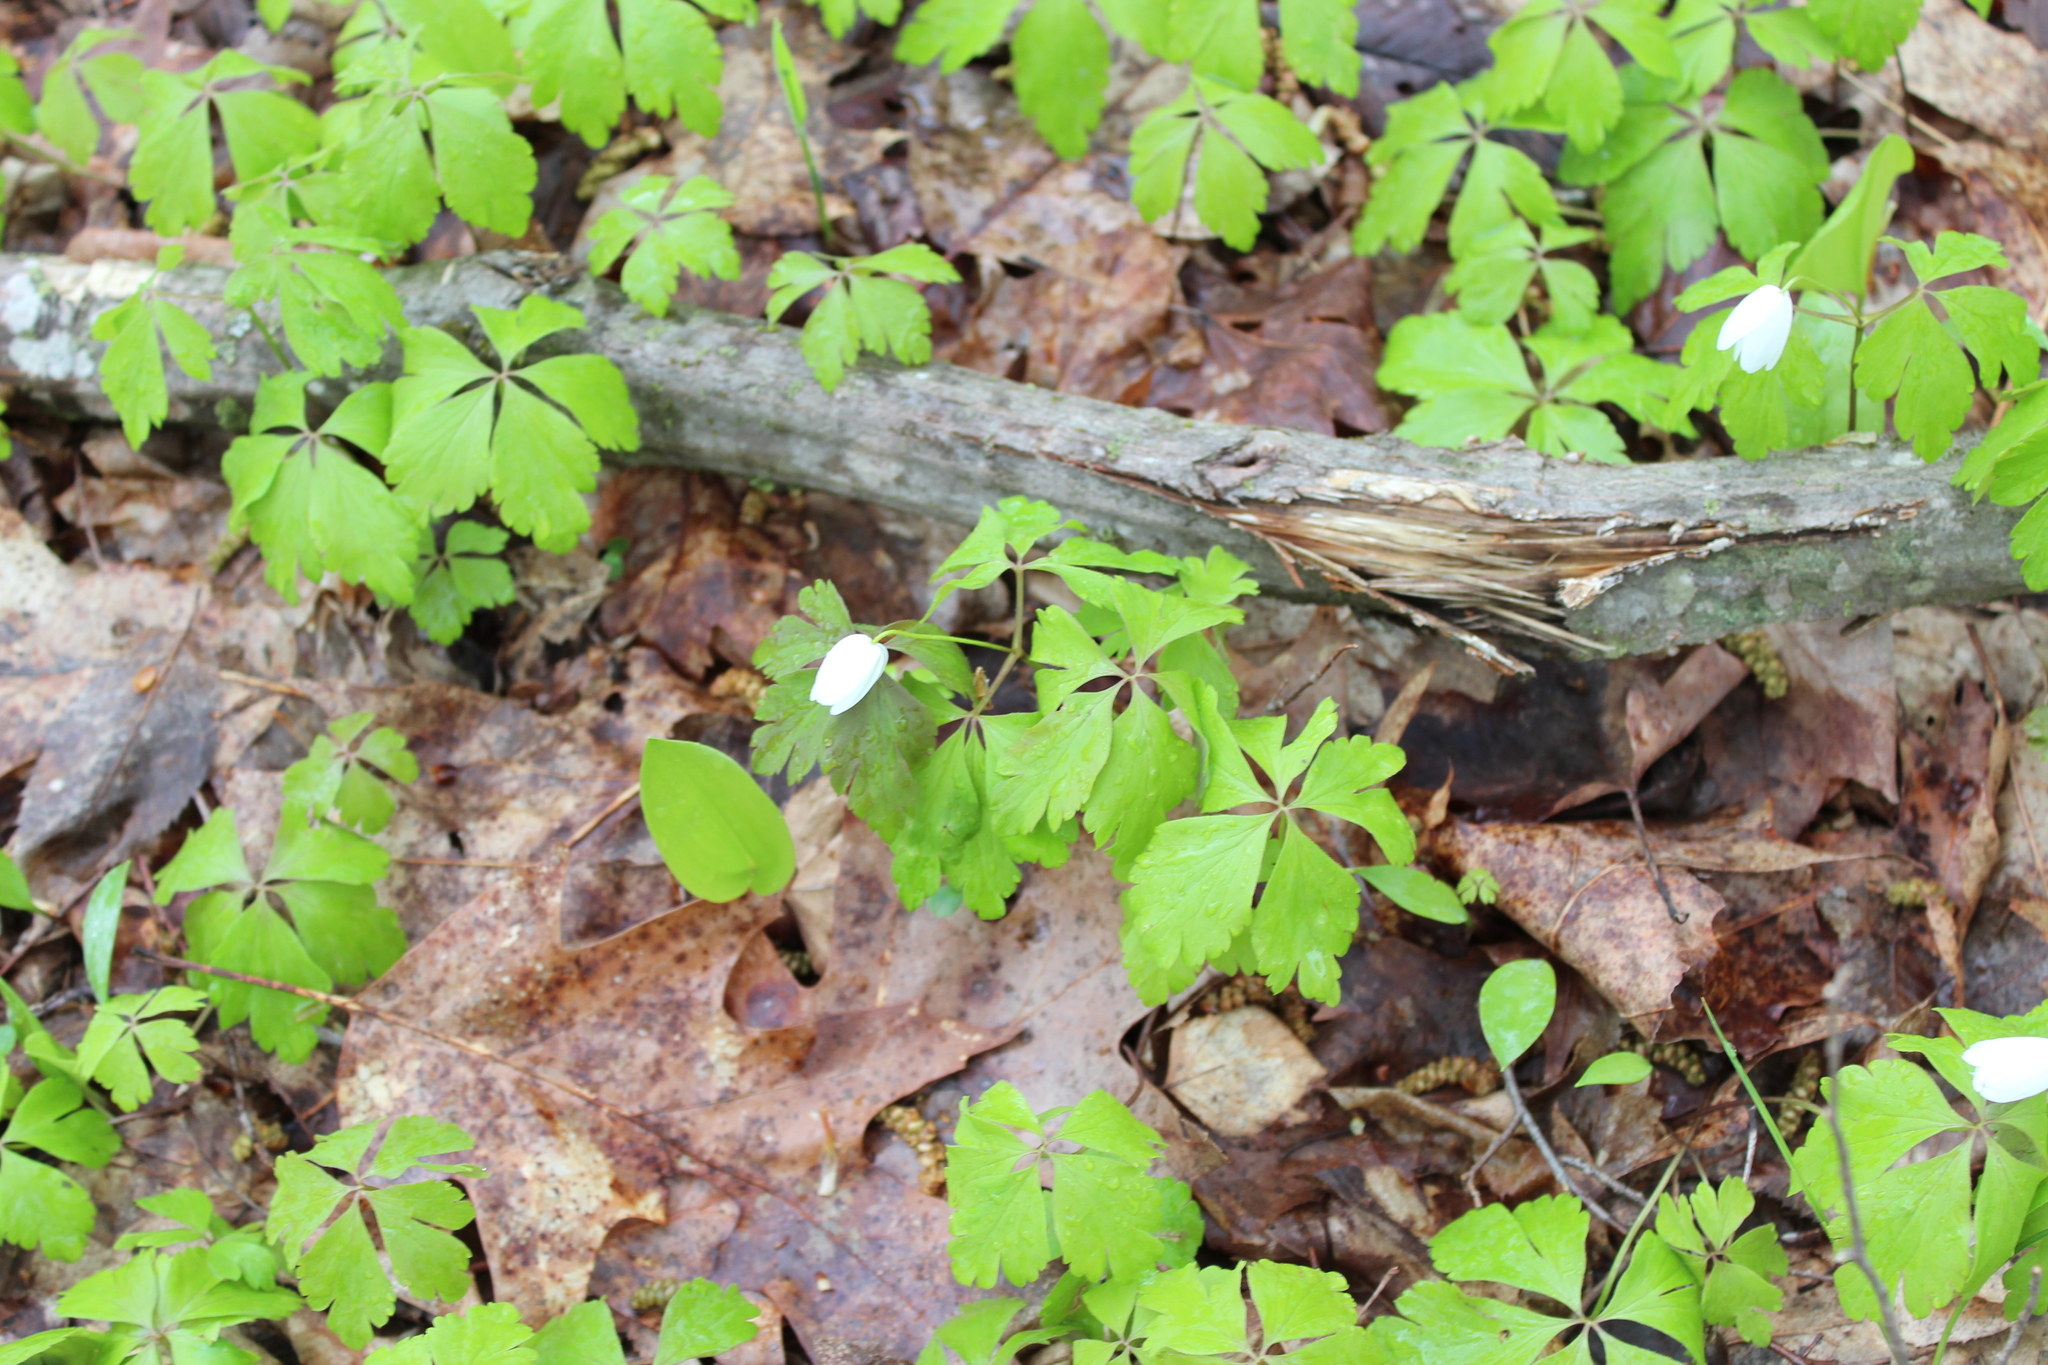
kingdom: Plantae
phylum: Tracheophyta
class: Magnoliopsida
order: Ranunculales
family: Ranunculaceae
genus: Anemone
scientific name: Anemone quinquefolia
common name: Wood anemone
